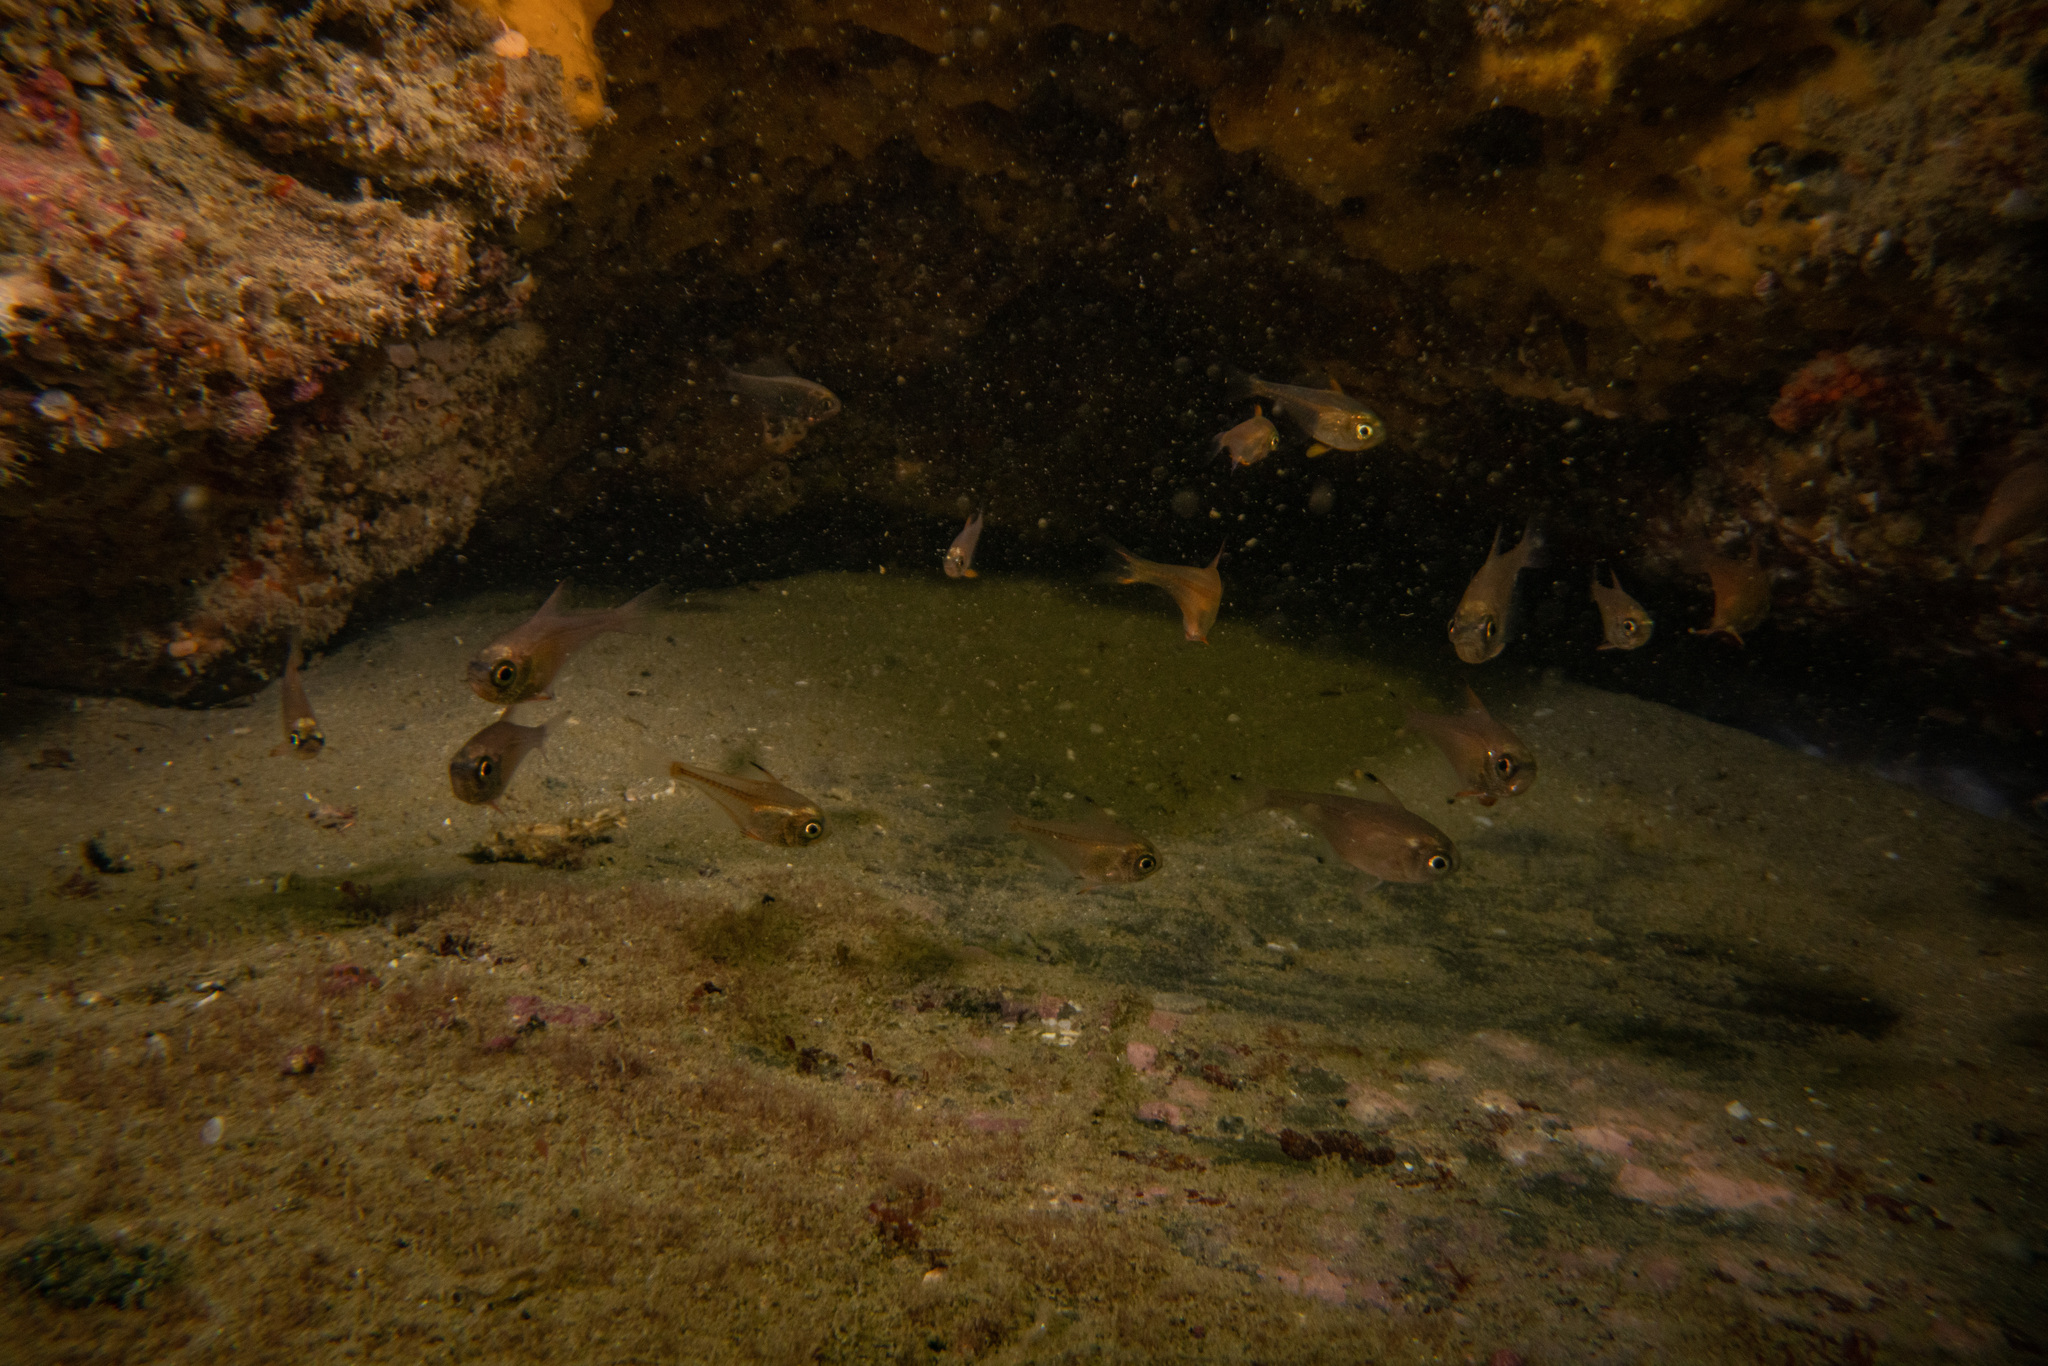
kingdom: Animalia
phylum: Chordata
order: Perciformes
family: Pempheridae
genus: Pempheris
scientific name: Pempheris adspersa
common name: Bigeye
